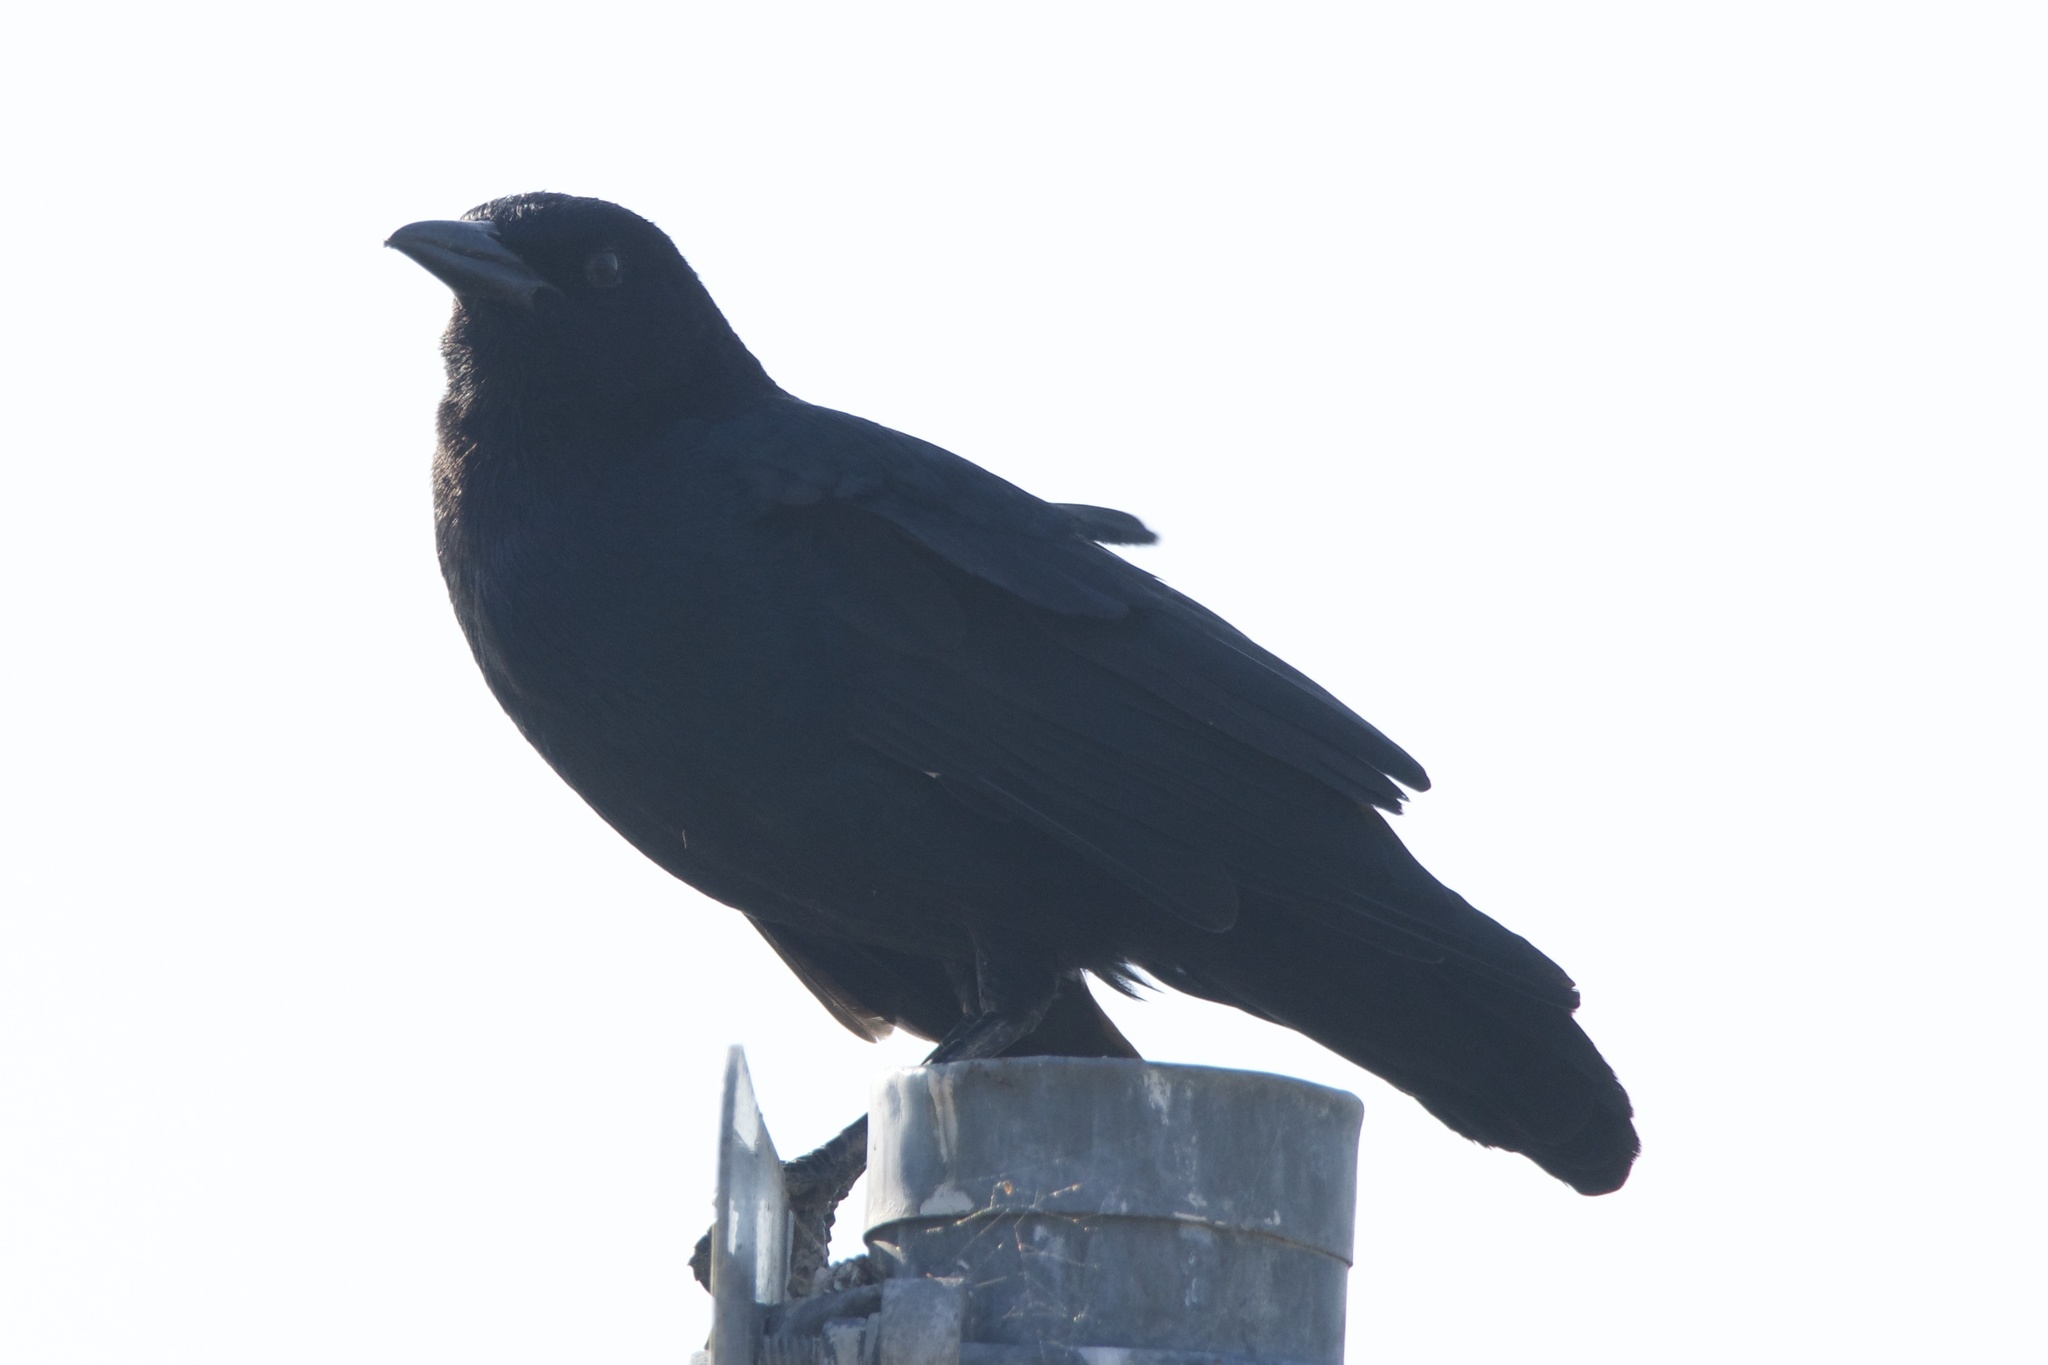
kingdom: Animalia
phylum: Chordata
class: Aves
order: Passeriformes
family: Corvidae
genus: Corvus
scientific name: Corvus brachyrhynchos
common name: American crow
